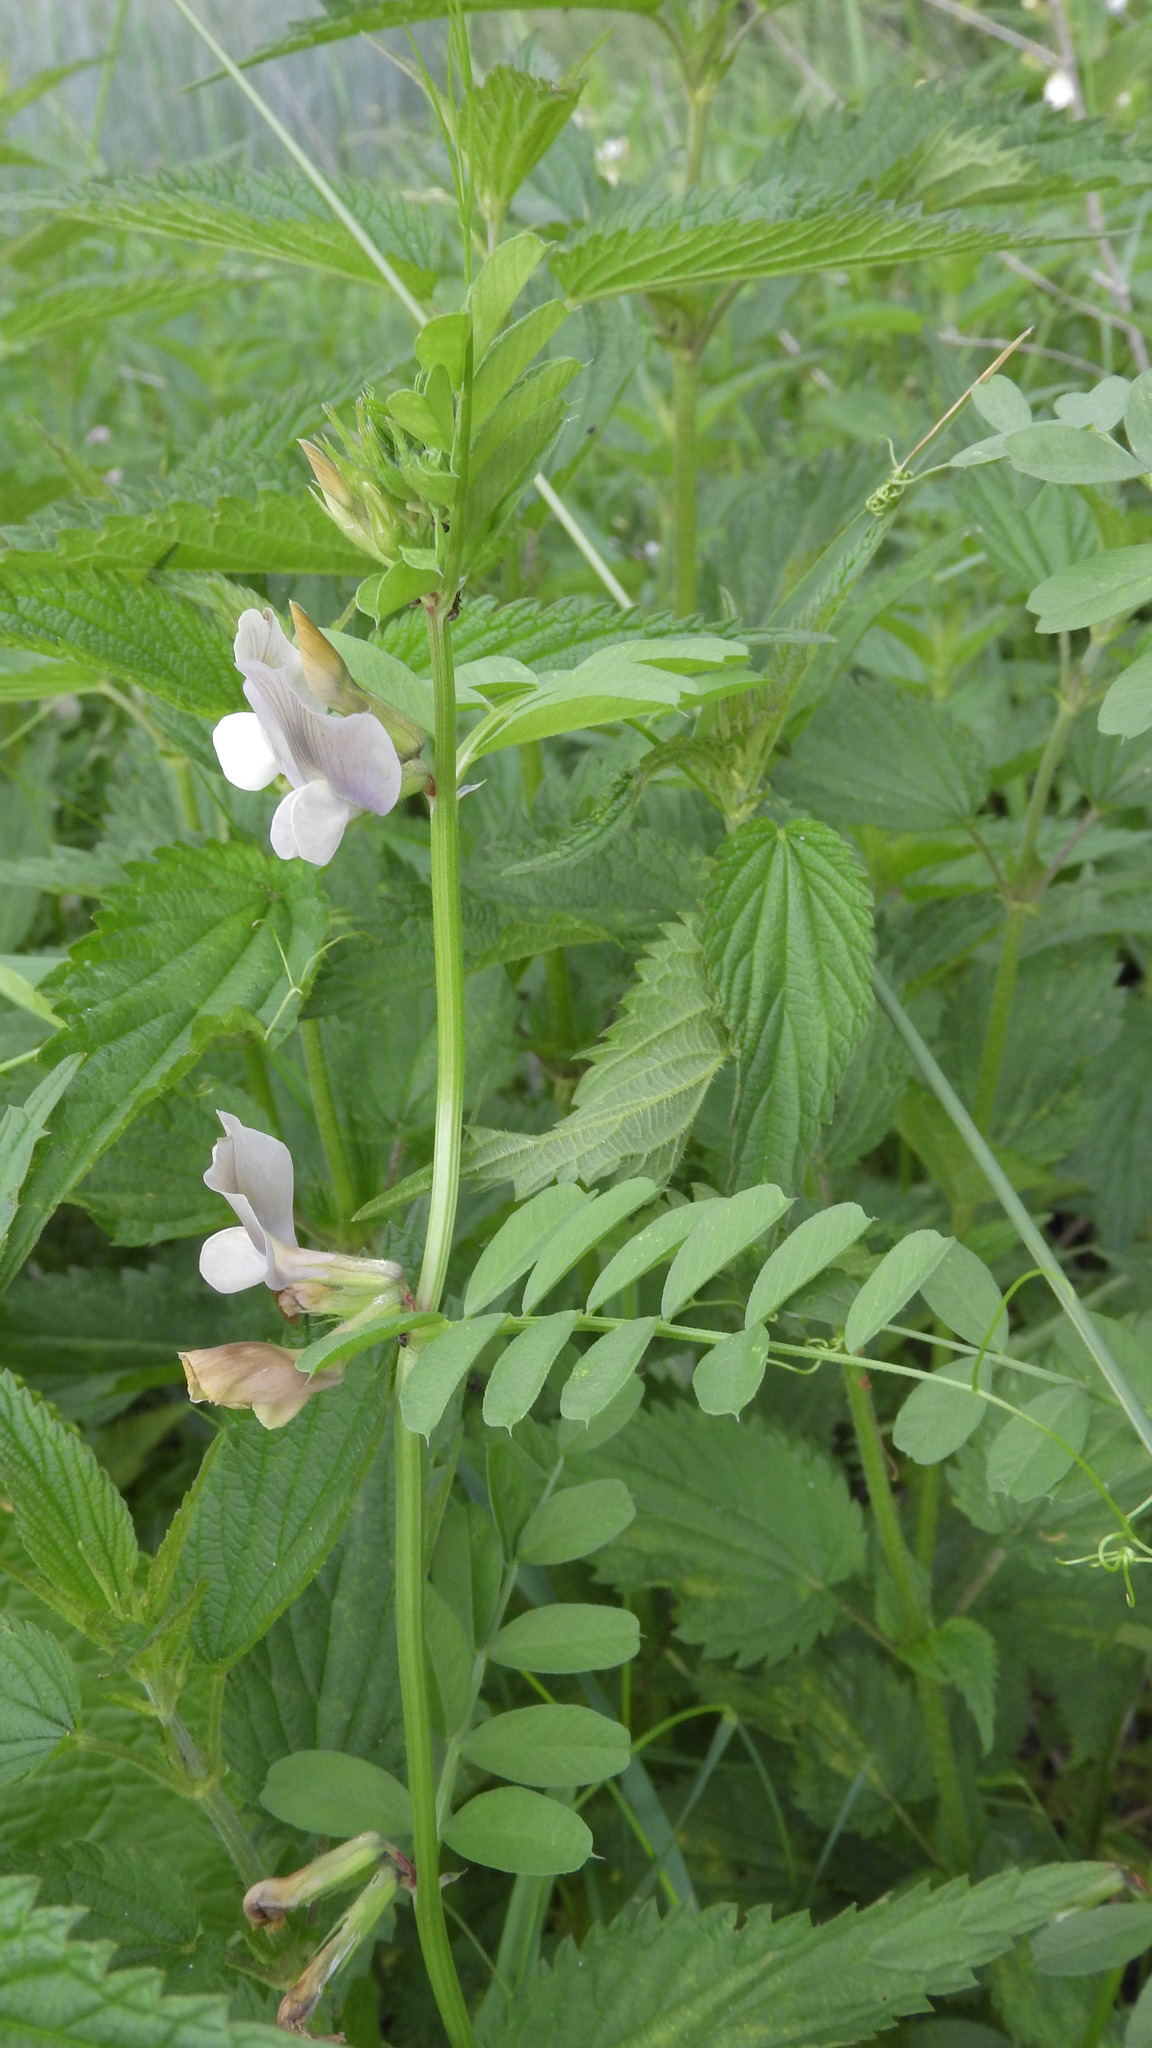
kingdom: Plantae
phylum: Tracheophyta
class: Magnoliopsida
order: Fabales
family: Fabaceae
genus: Vicia
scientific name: Vicia grandiflora
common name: Large yellow vetch
